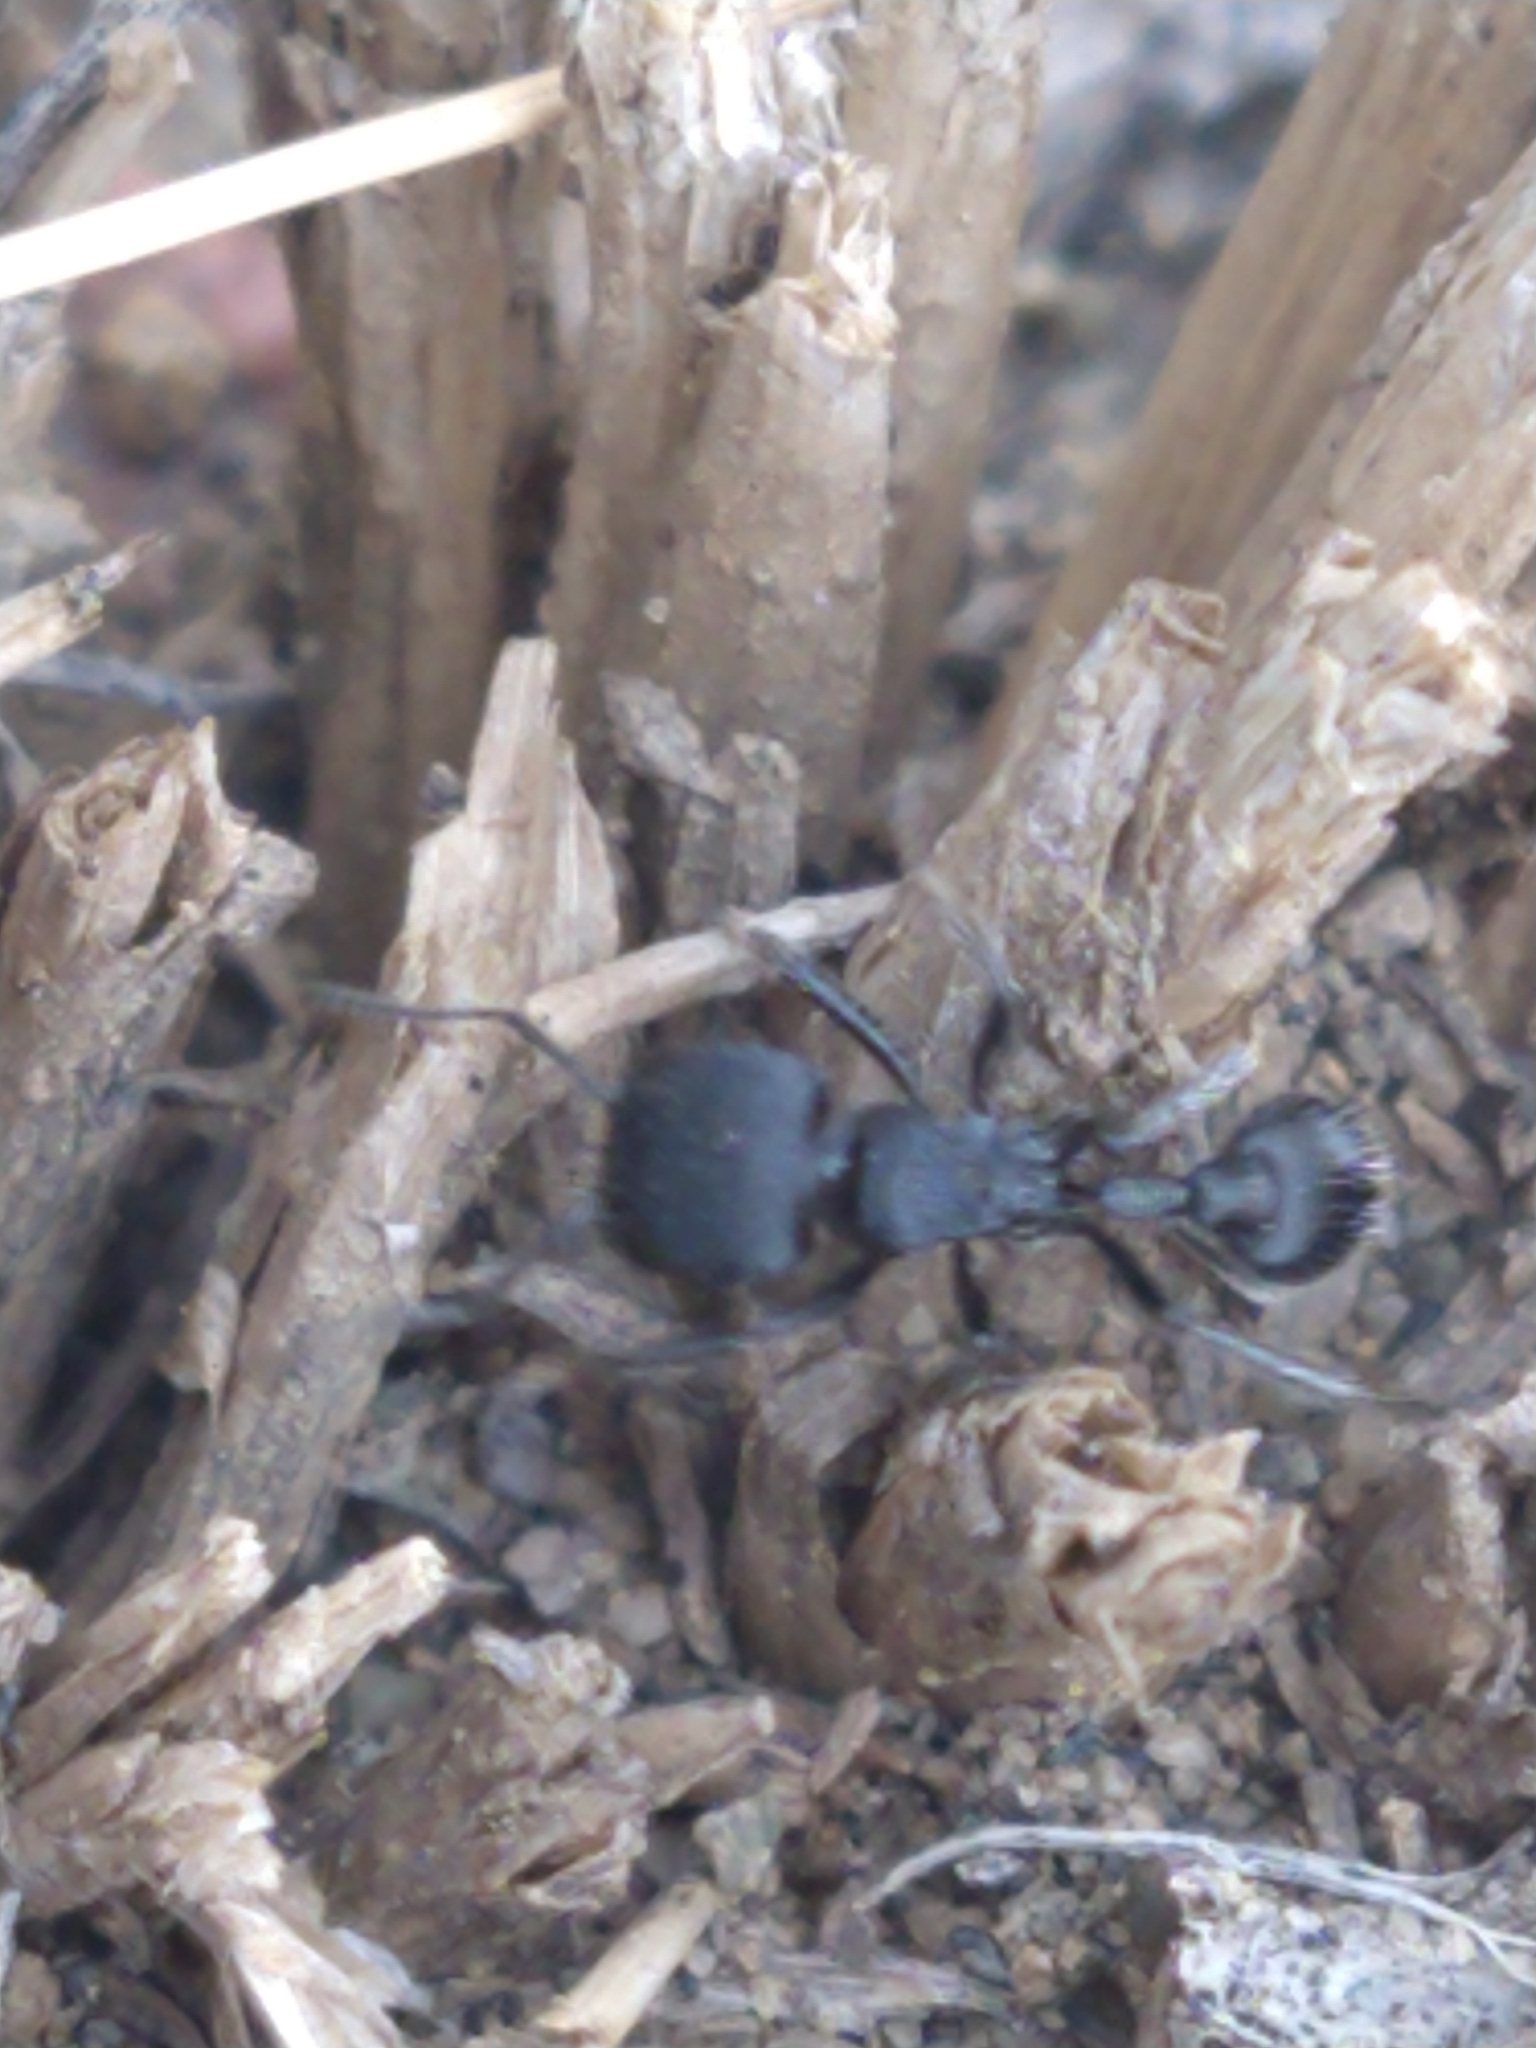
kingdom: Animalia
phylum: Arthropoda
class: Insecta
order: Hymenoptera
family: Formicidae
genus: Pogonomyrmex
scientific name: Pogonomyrmex
